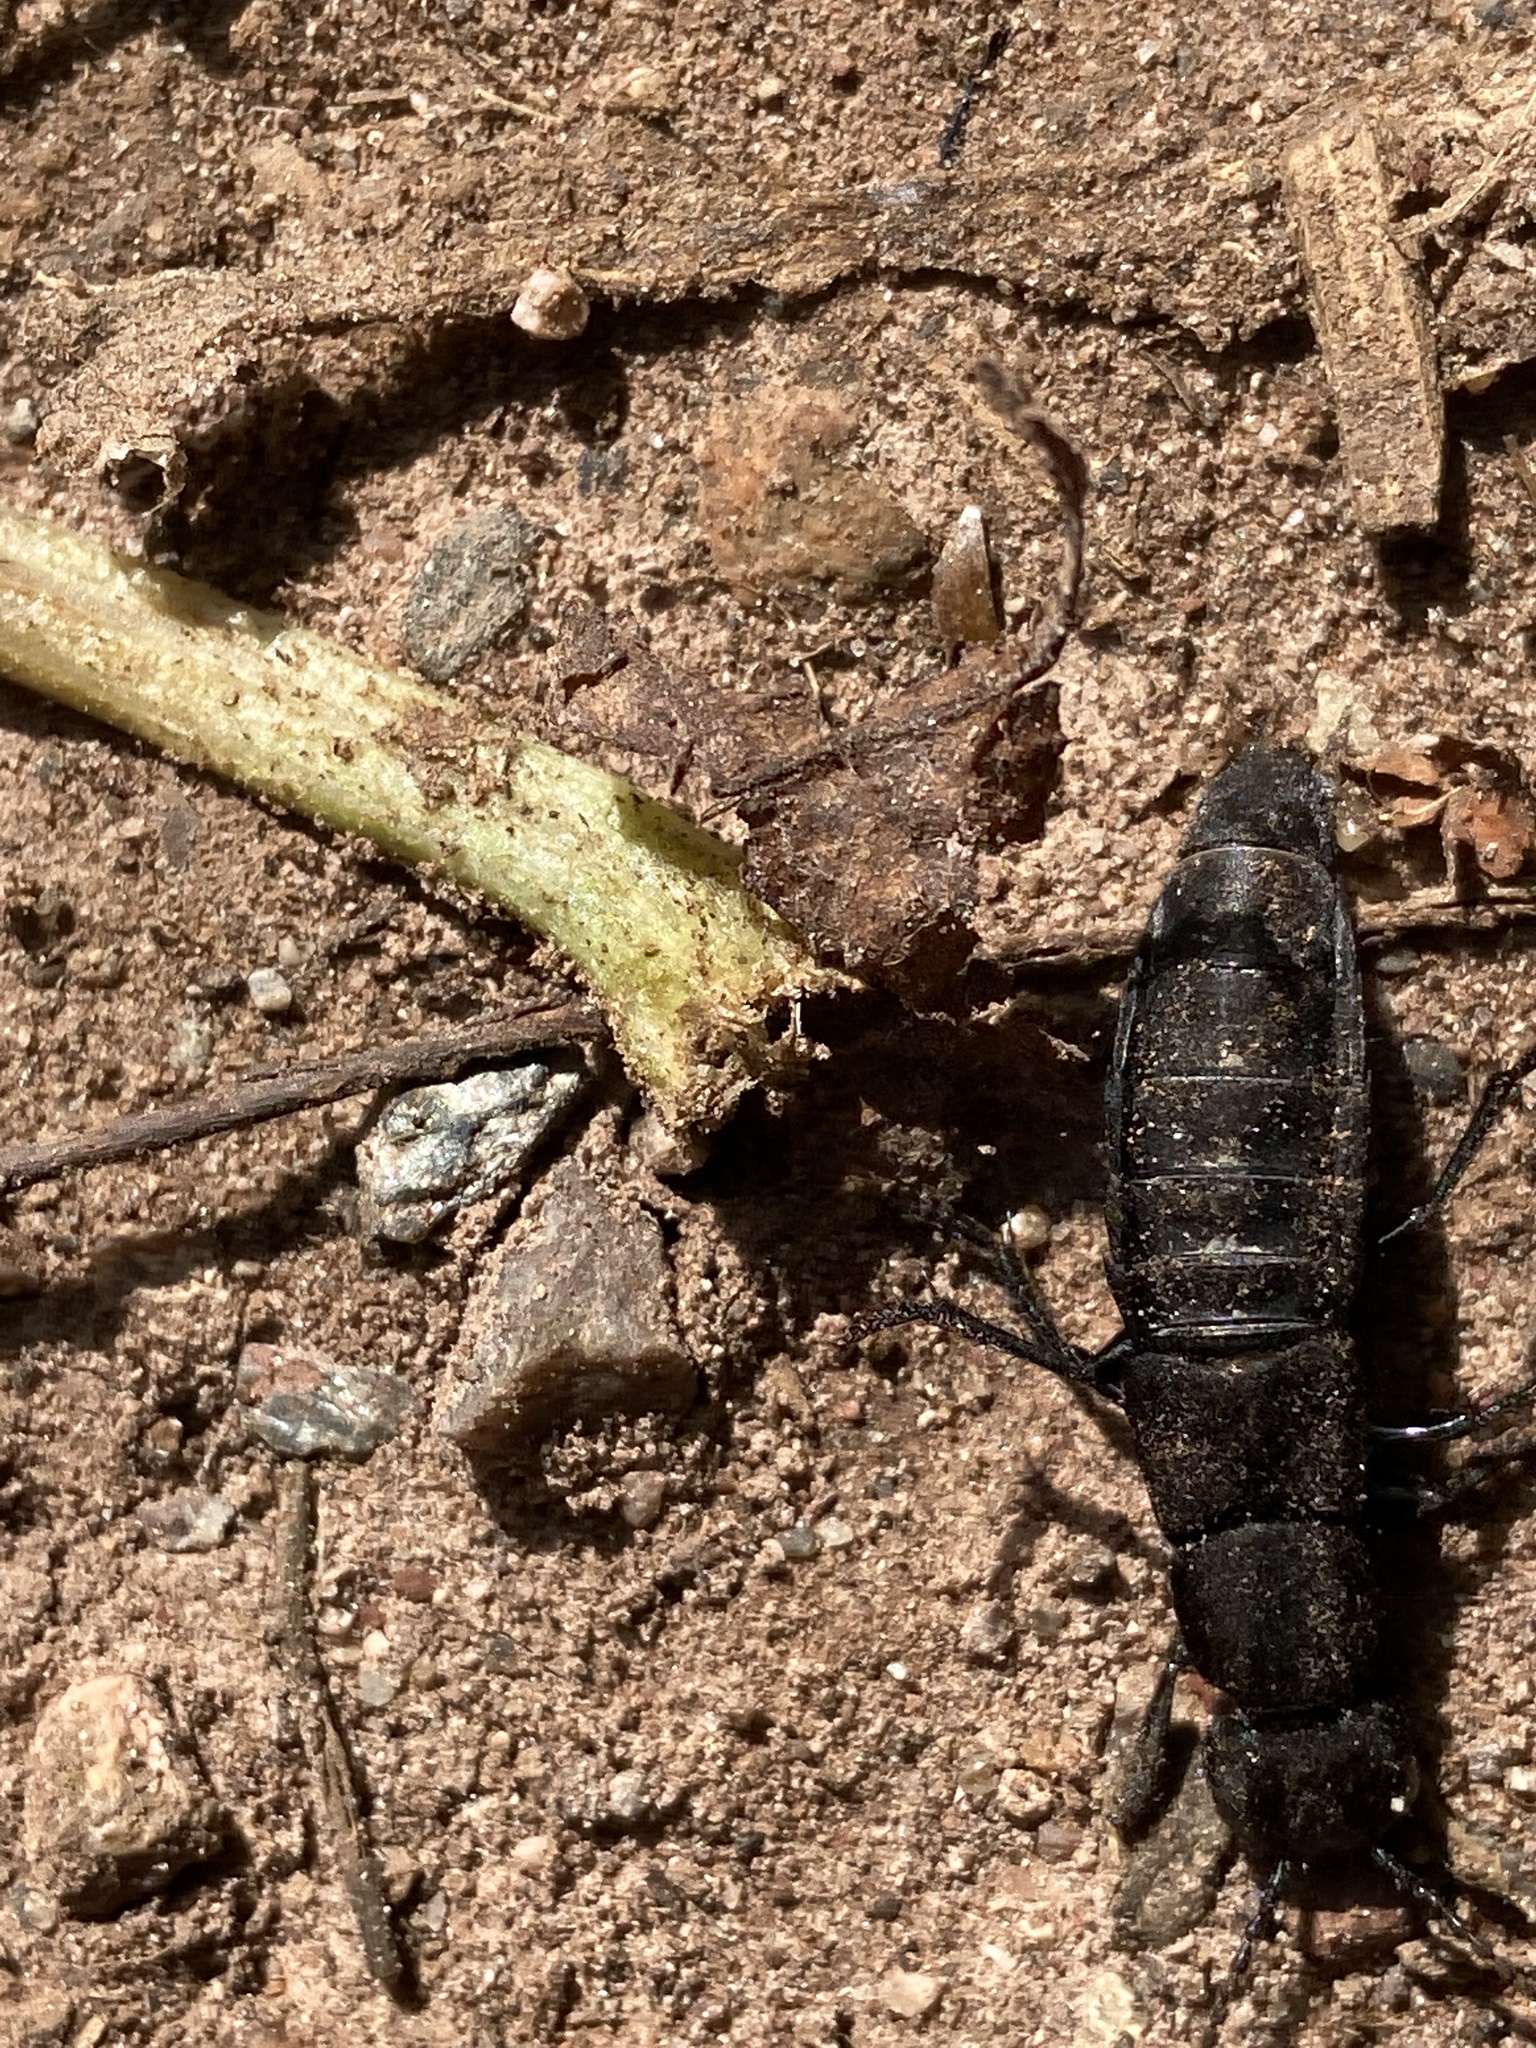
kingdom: Animalia
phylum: Arthropoda
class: Insecta
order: Coleoptera
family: Staphylinidae
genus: Ocypus
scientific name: Ocypus olens
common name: Devil's coach-horse
